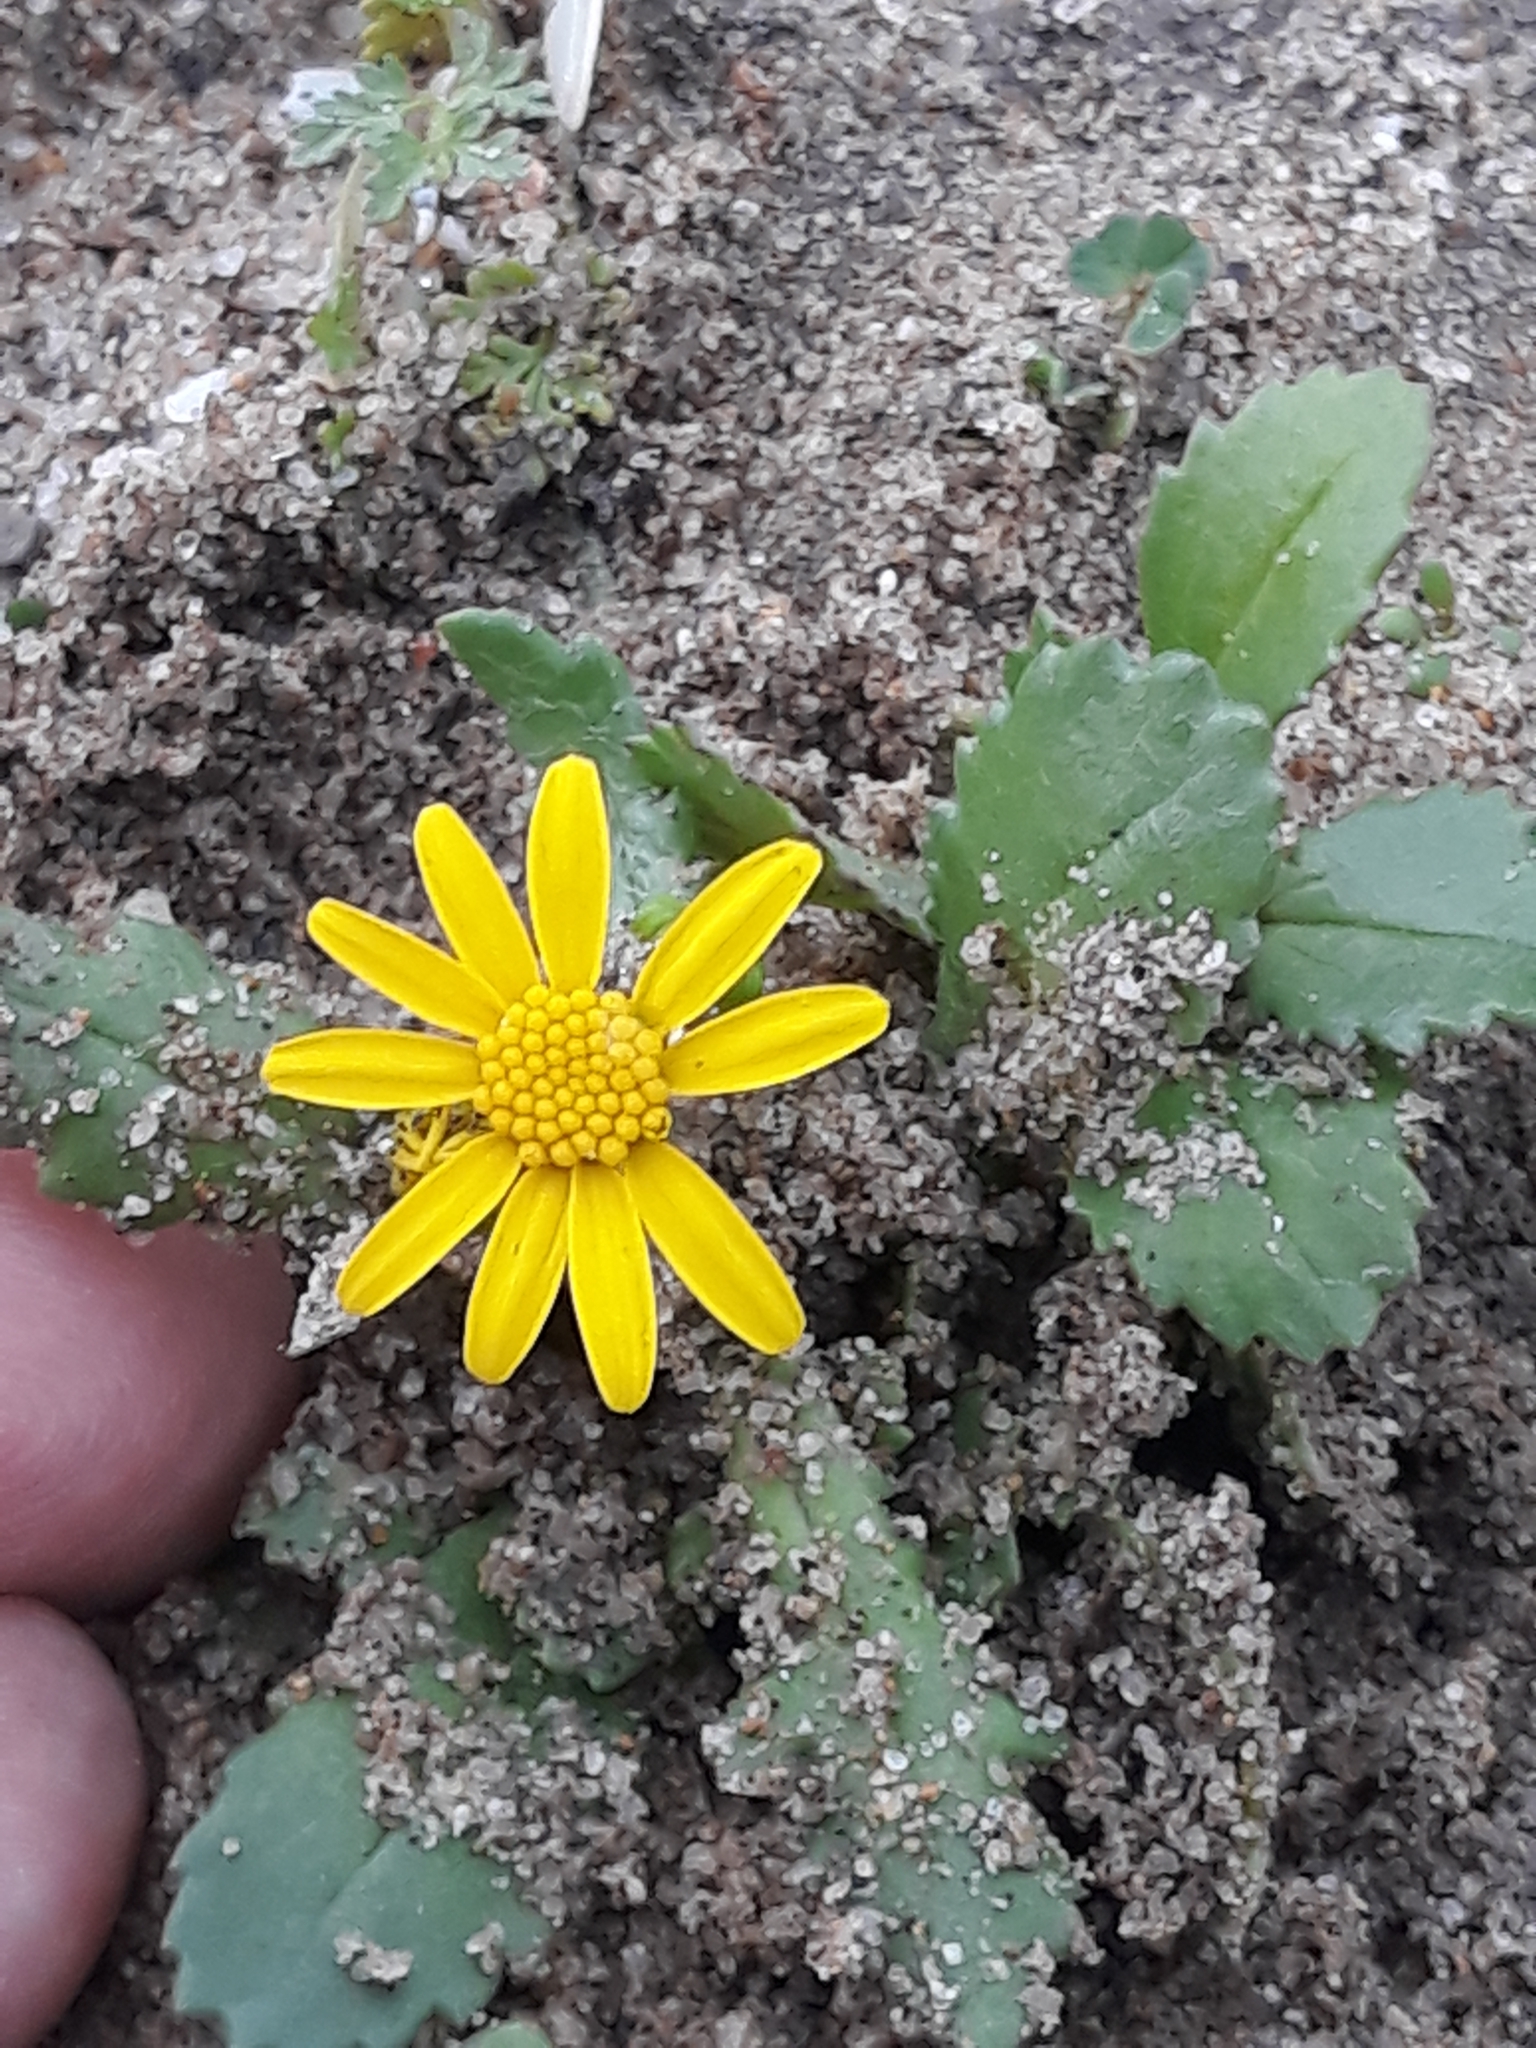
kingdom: Plantae
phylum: Tracheophyta
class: Magnoliopsida
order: Asterales
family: Asteraceae
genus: Senecio
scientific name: Senecio leucanthemifolius
